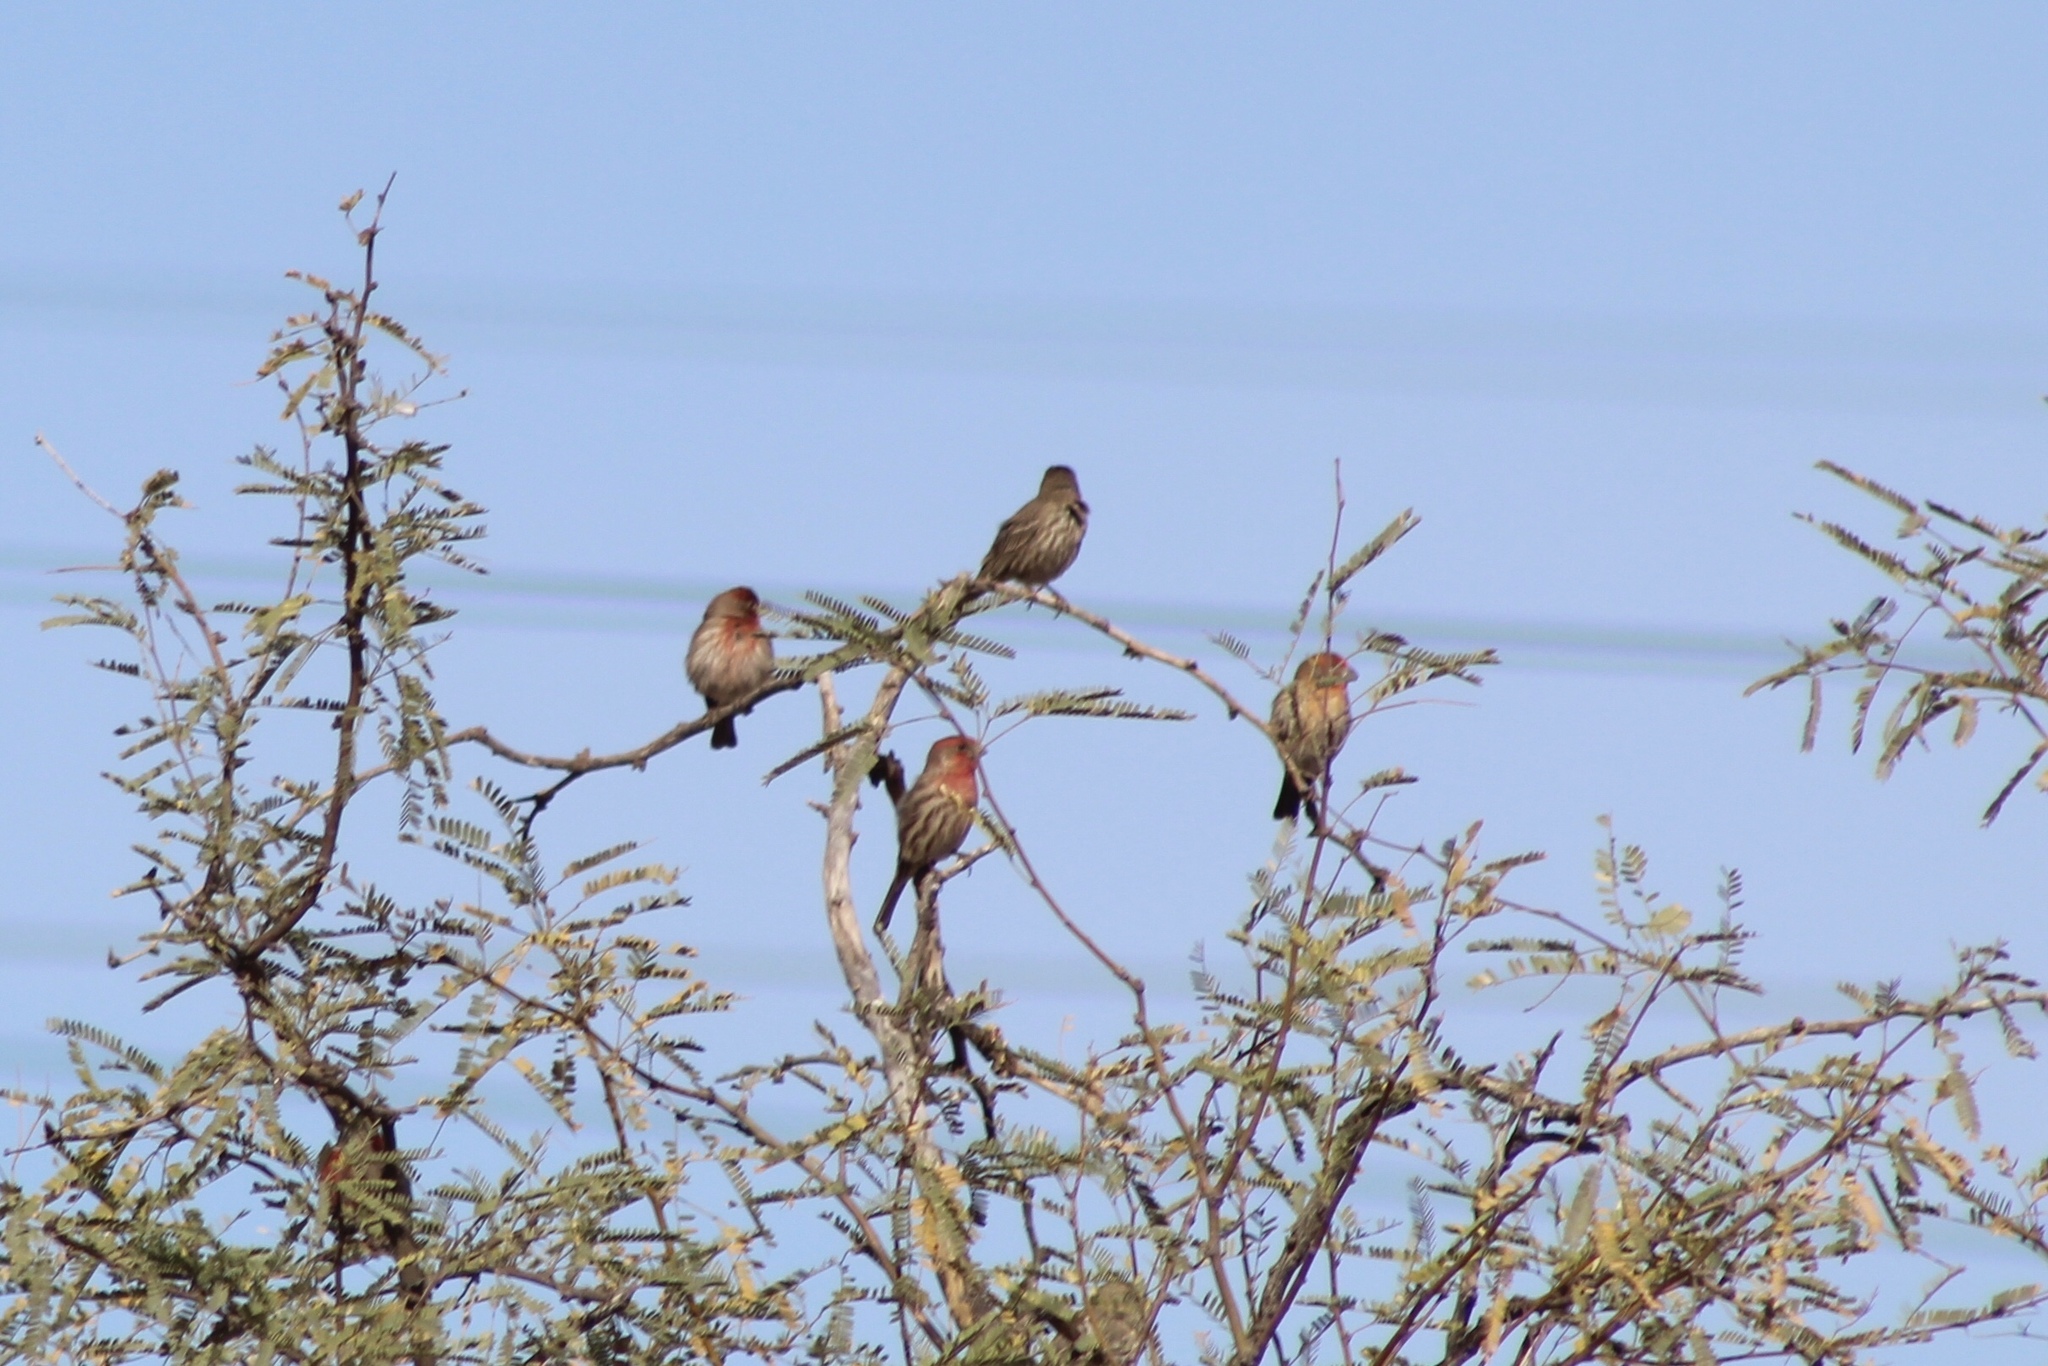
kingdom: Animalia
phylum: Chordata
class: Aves
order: Passeriformes
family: Fringillidae
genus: Haemorhous
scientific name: Haemorhous mexicanus
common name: House finch
